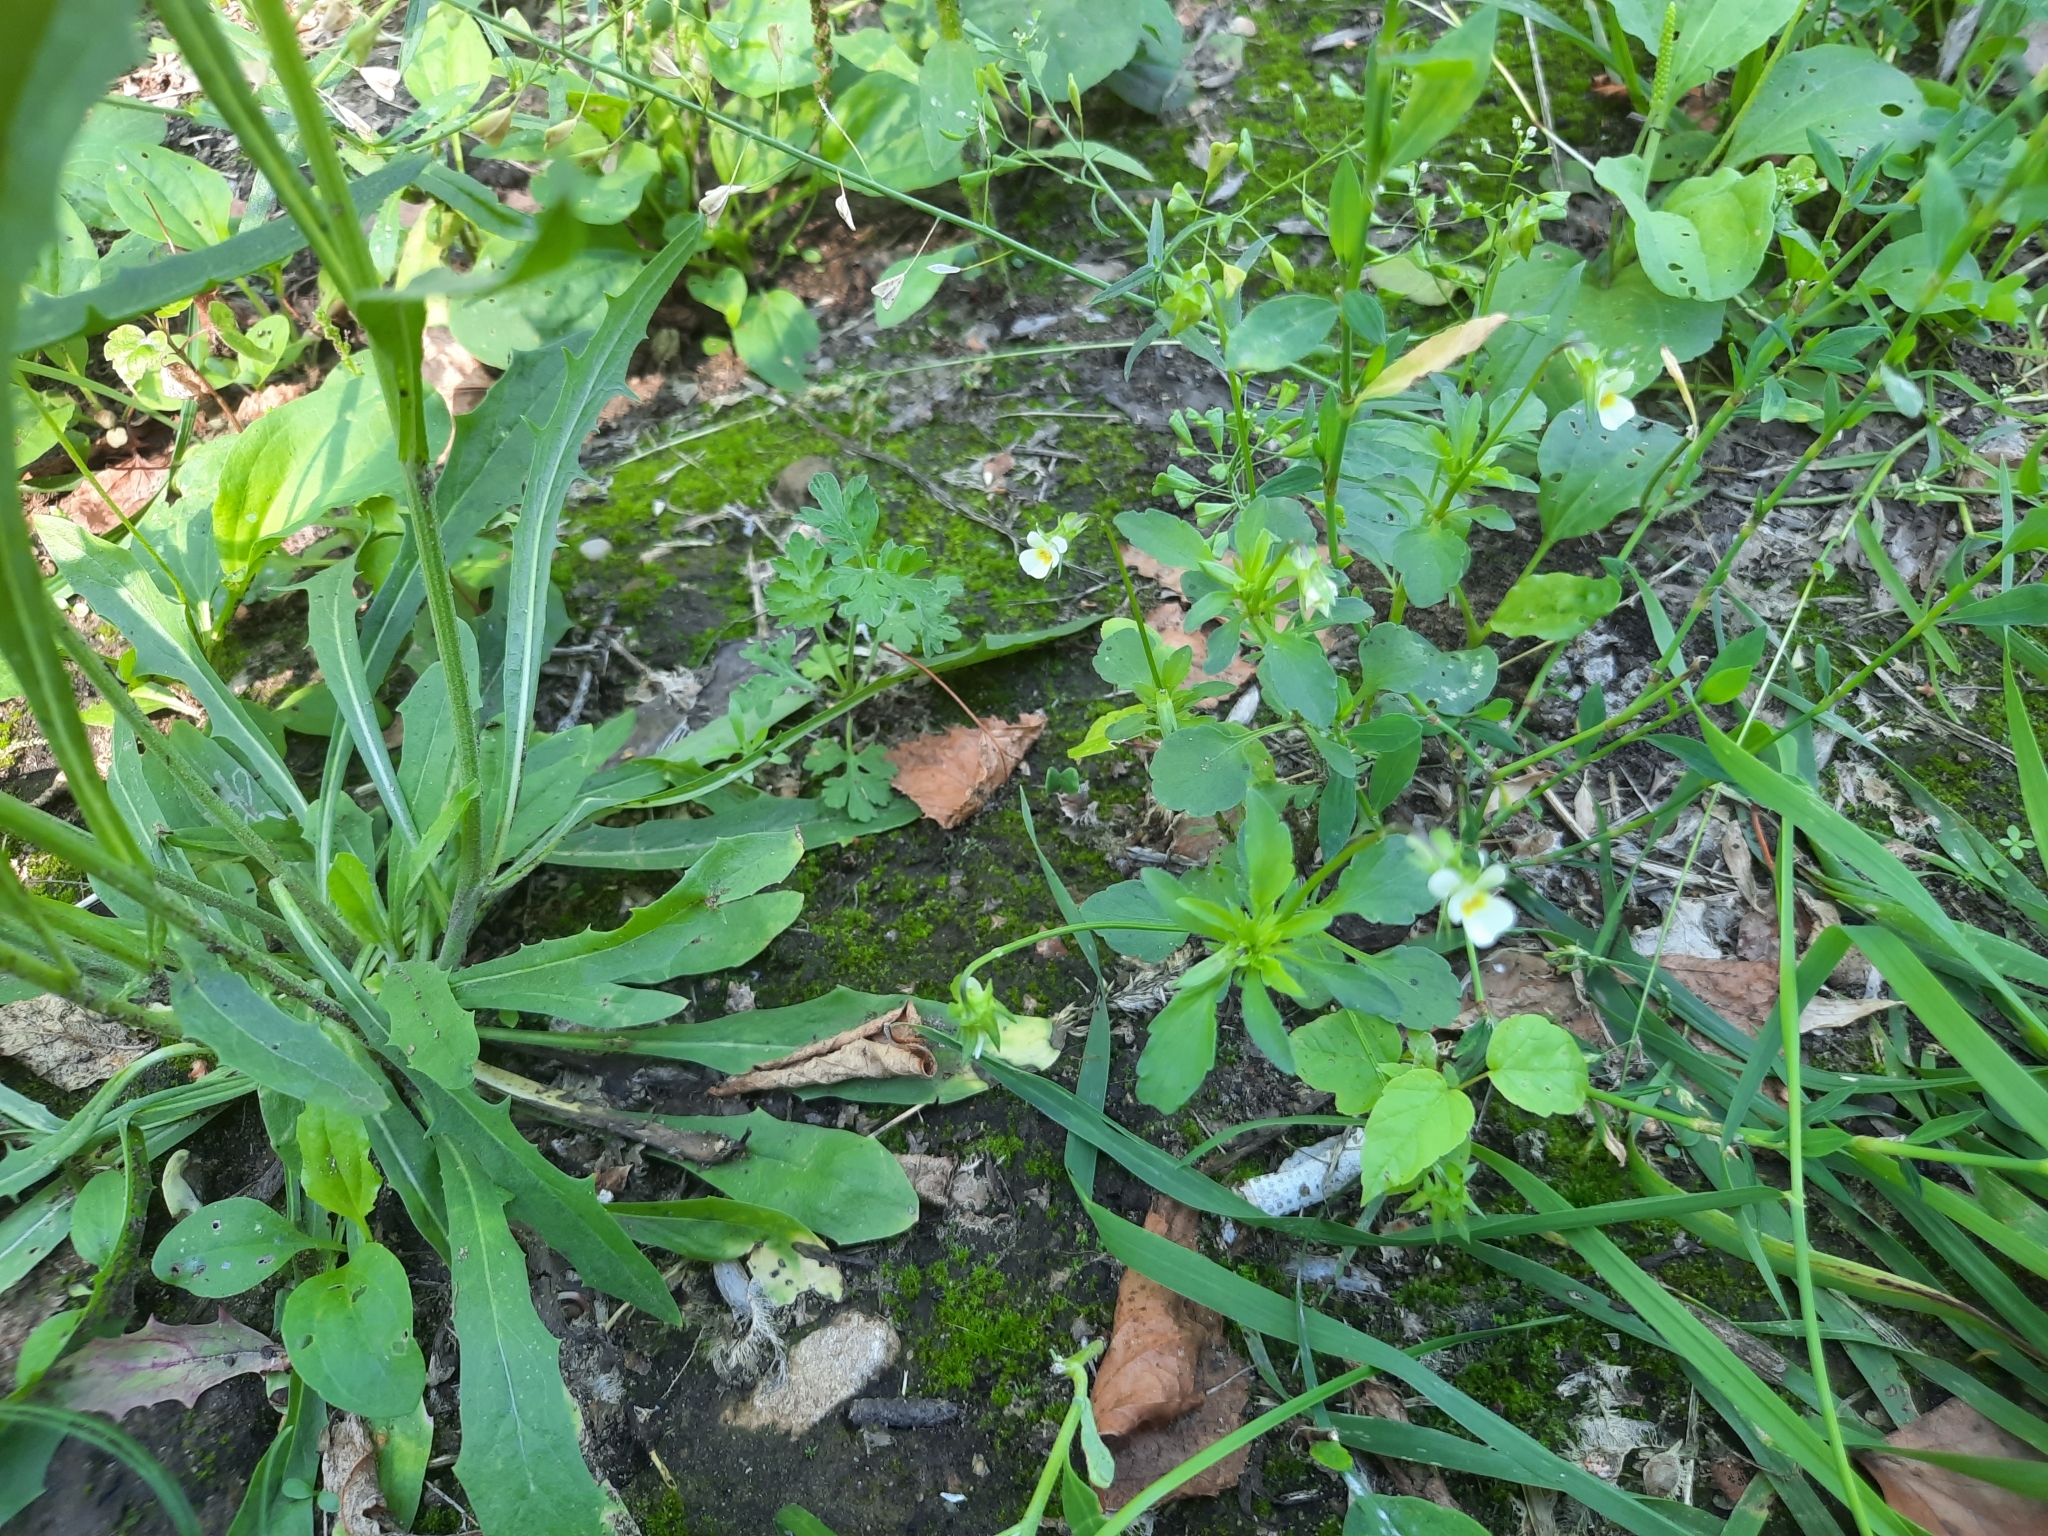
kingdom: Plantae
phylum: Tracheophyta
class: Magnoliopsida
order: Malpighiales
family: Violaceae
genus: Viola
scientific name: Viola arvensis
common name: Field pansy
